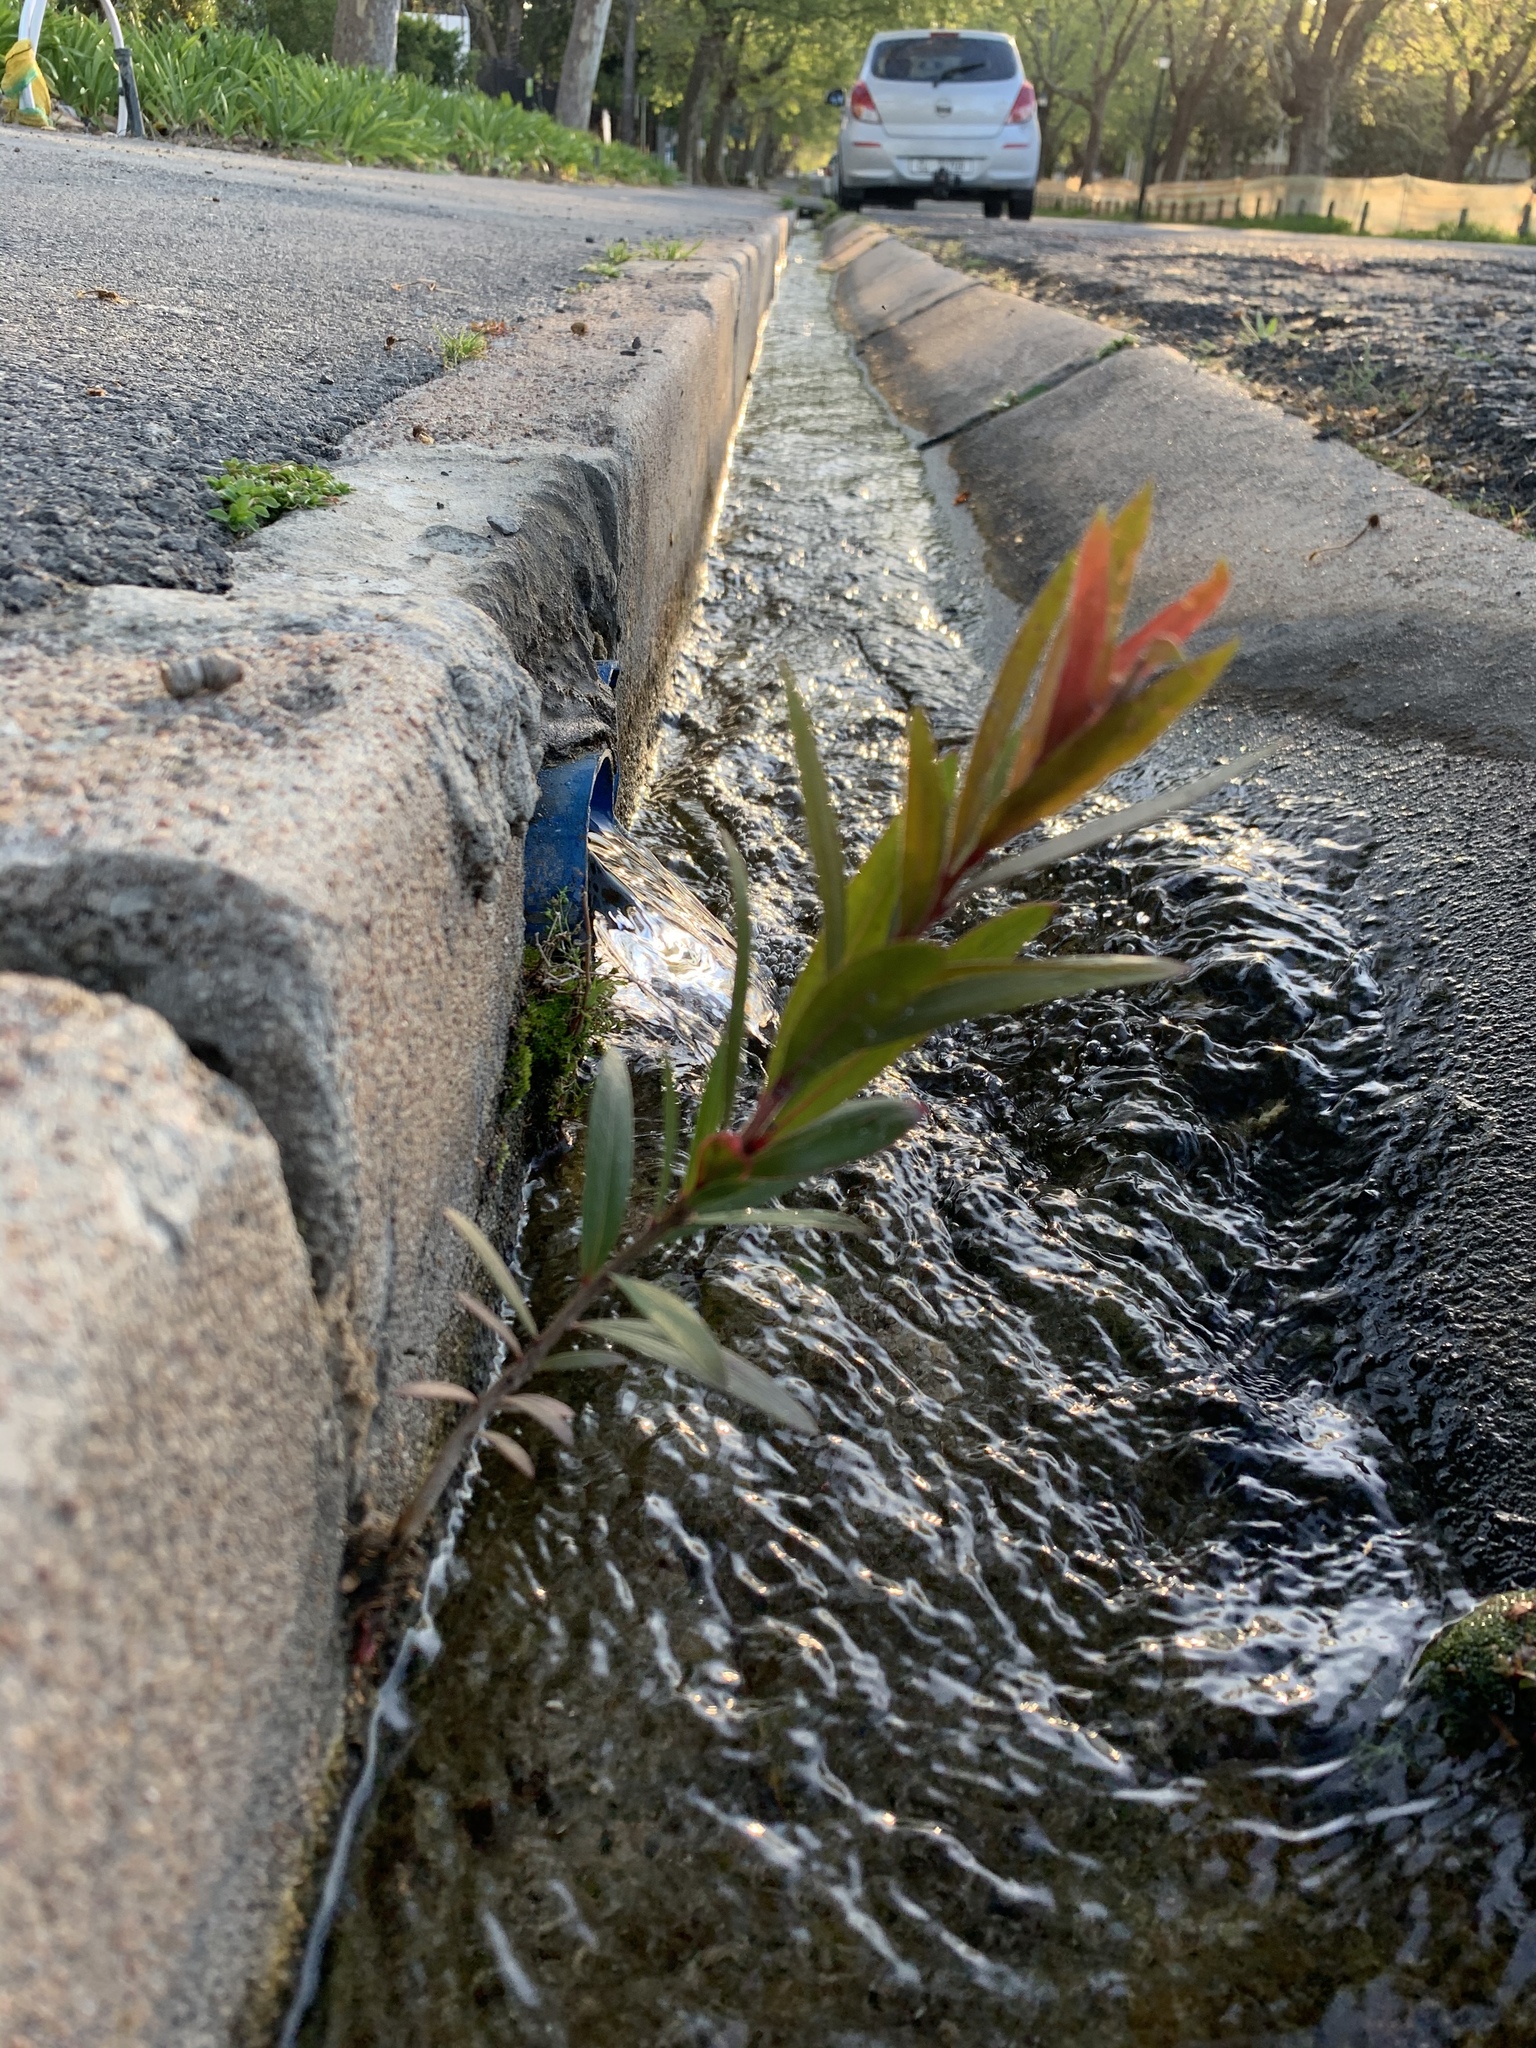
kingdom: Plantae
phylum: Tracheophyta
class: Magnoliopsida
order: Myrtales
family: Myrtaceae
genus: Callistemon
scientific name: Callistemon viminalis
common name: Drooping bottlebrush
